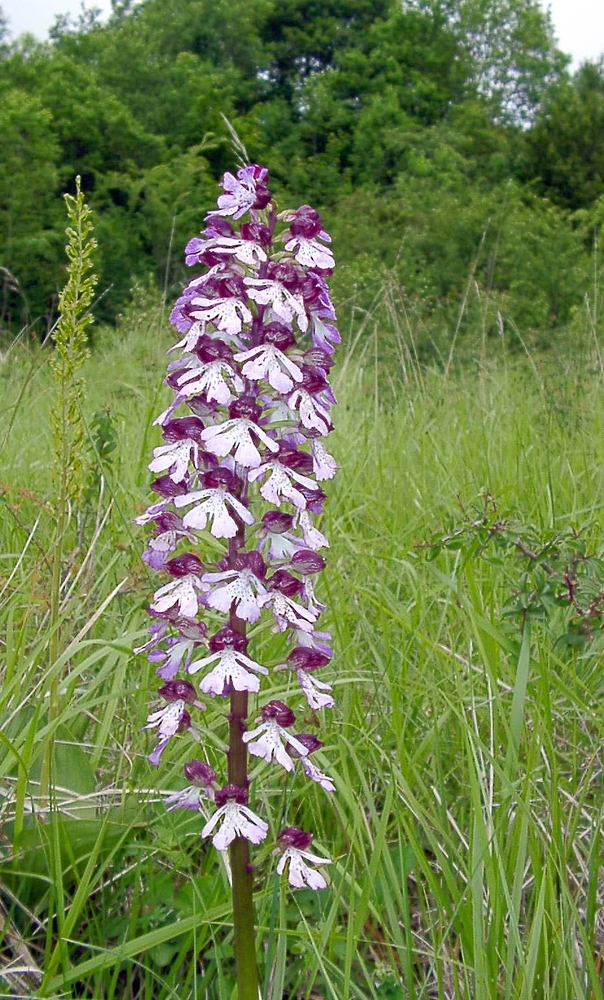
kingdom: Plantae
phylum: Tracheophyta
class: Liliopsida
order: Asparagales
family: Orchidaceae
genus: Orchis
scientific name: Orchis purpurea
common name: Lady orchid
